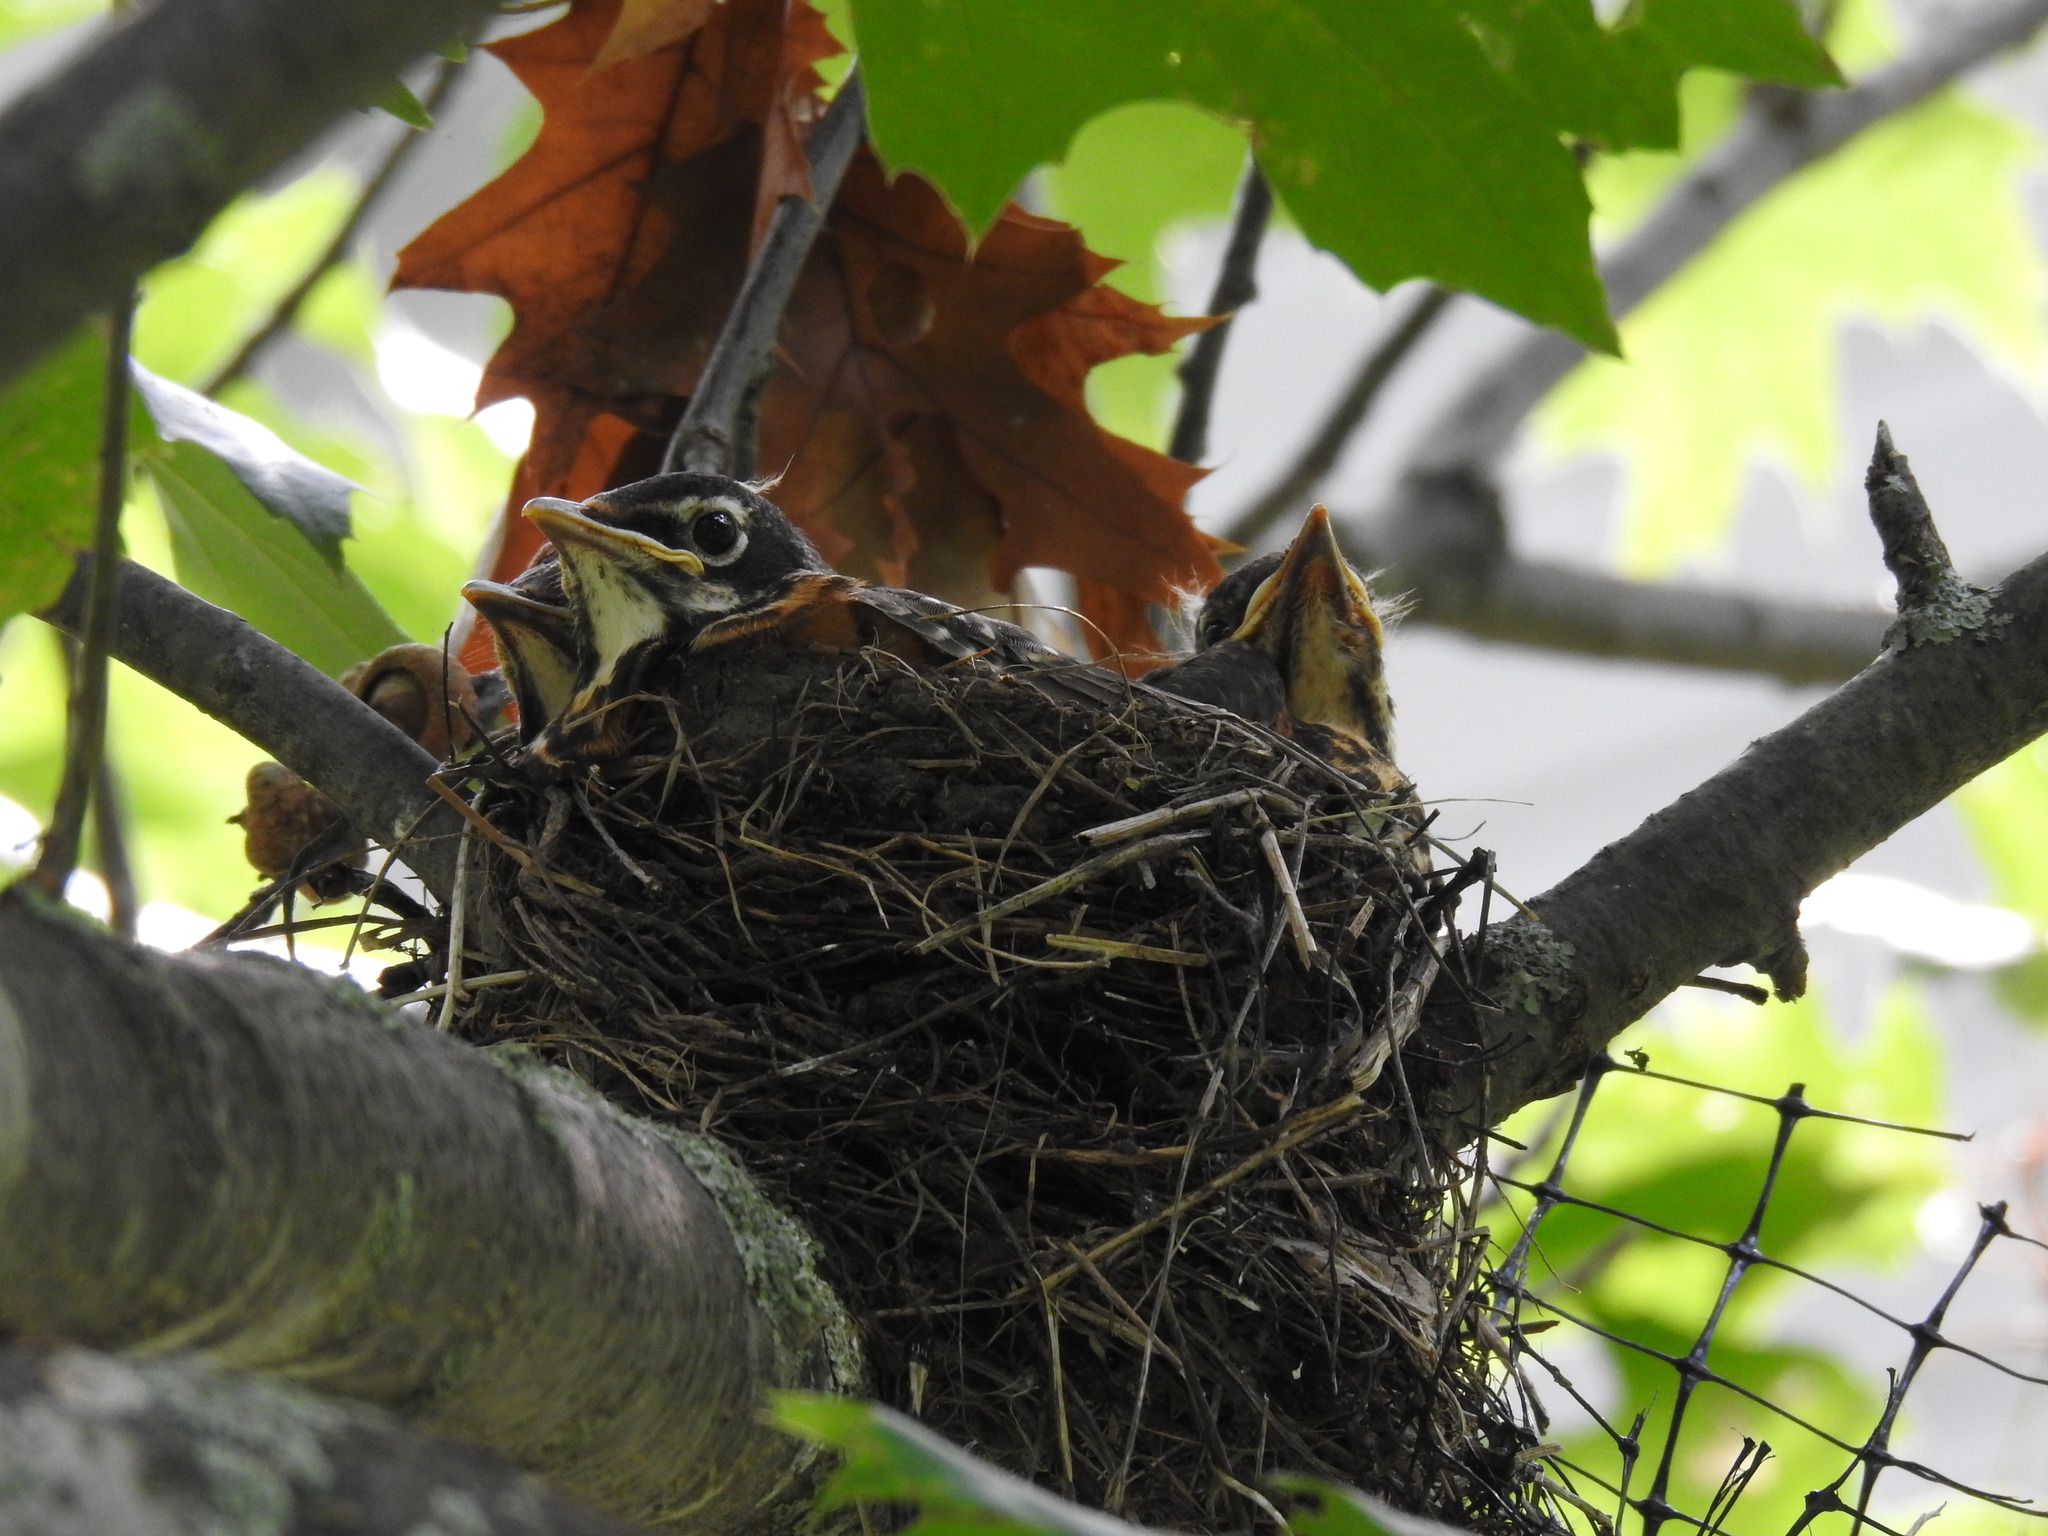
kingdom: Animalia
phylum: Chordata
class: Aves
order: Passeriformes
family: Turdidae
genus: Turdus
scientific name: Turdus migratorius
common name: American robin
